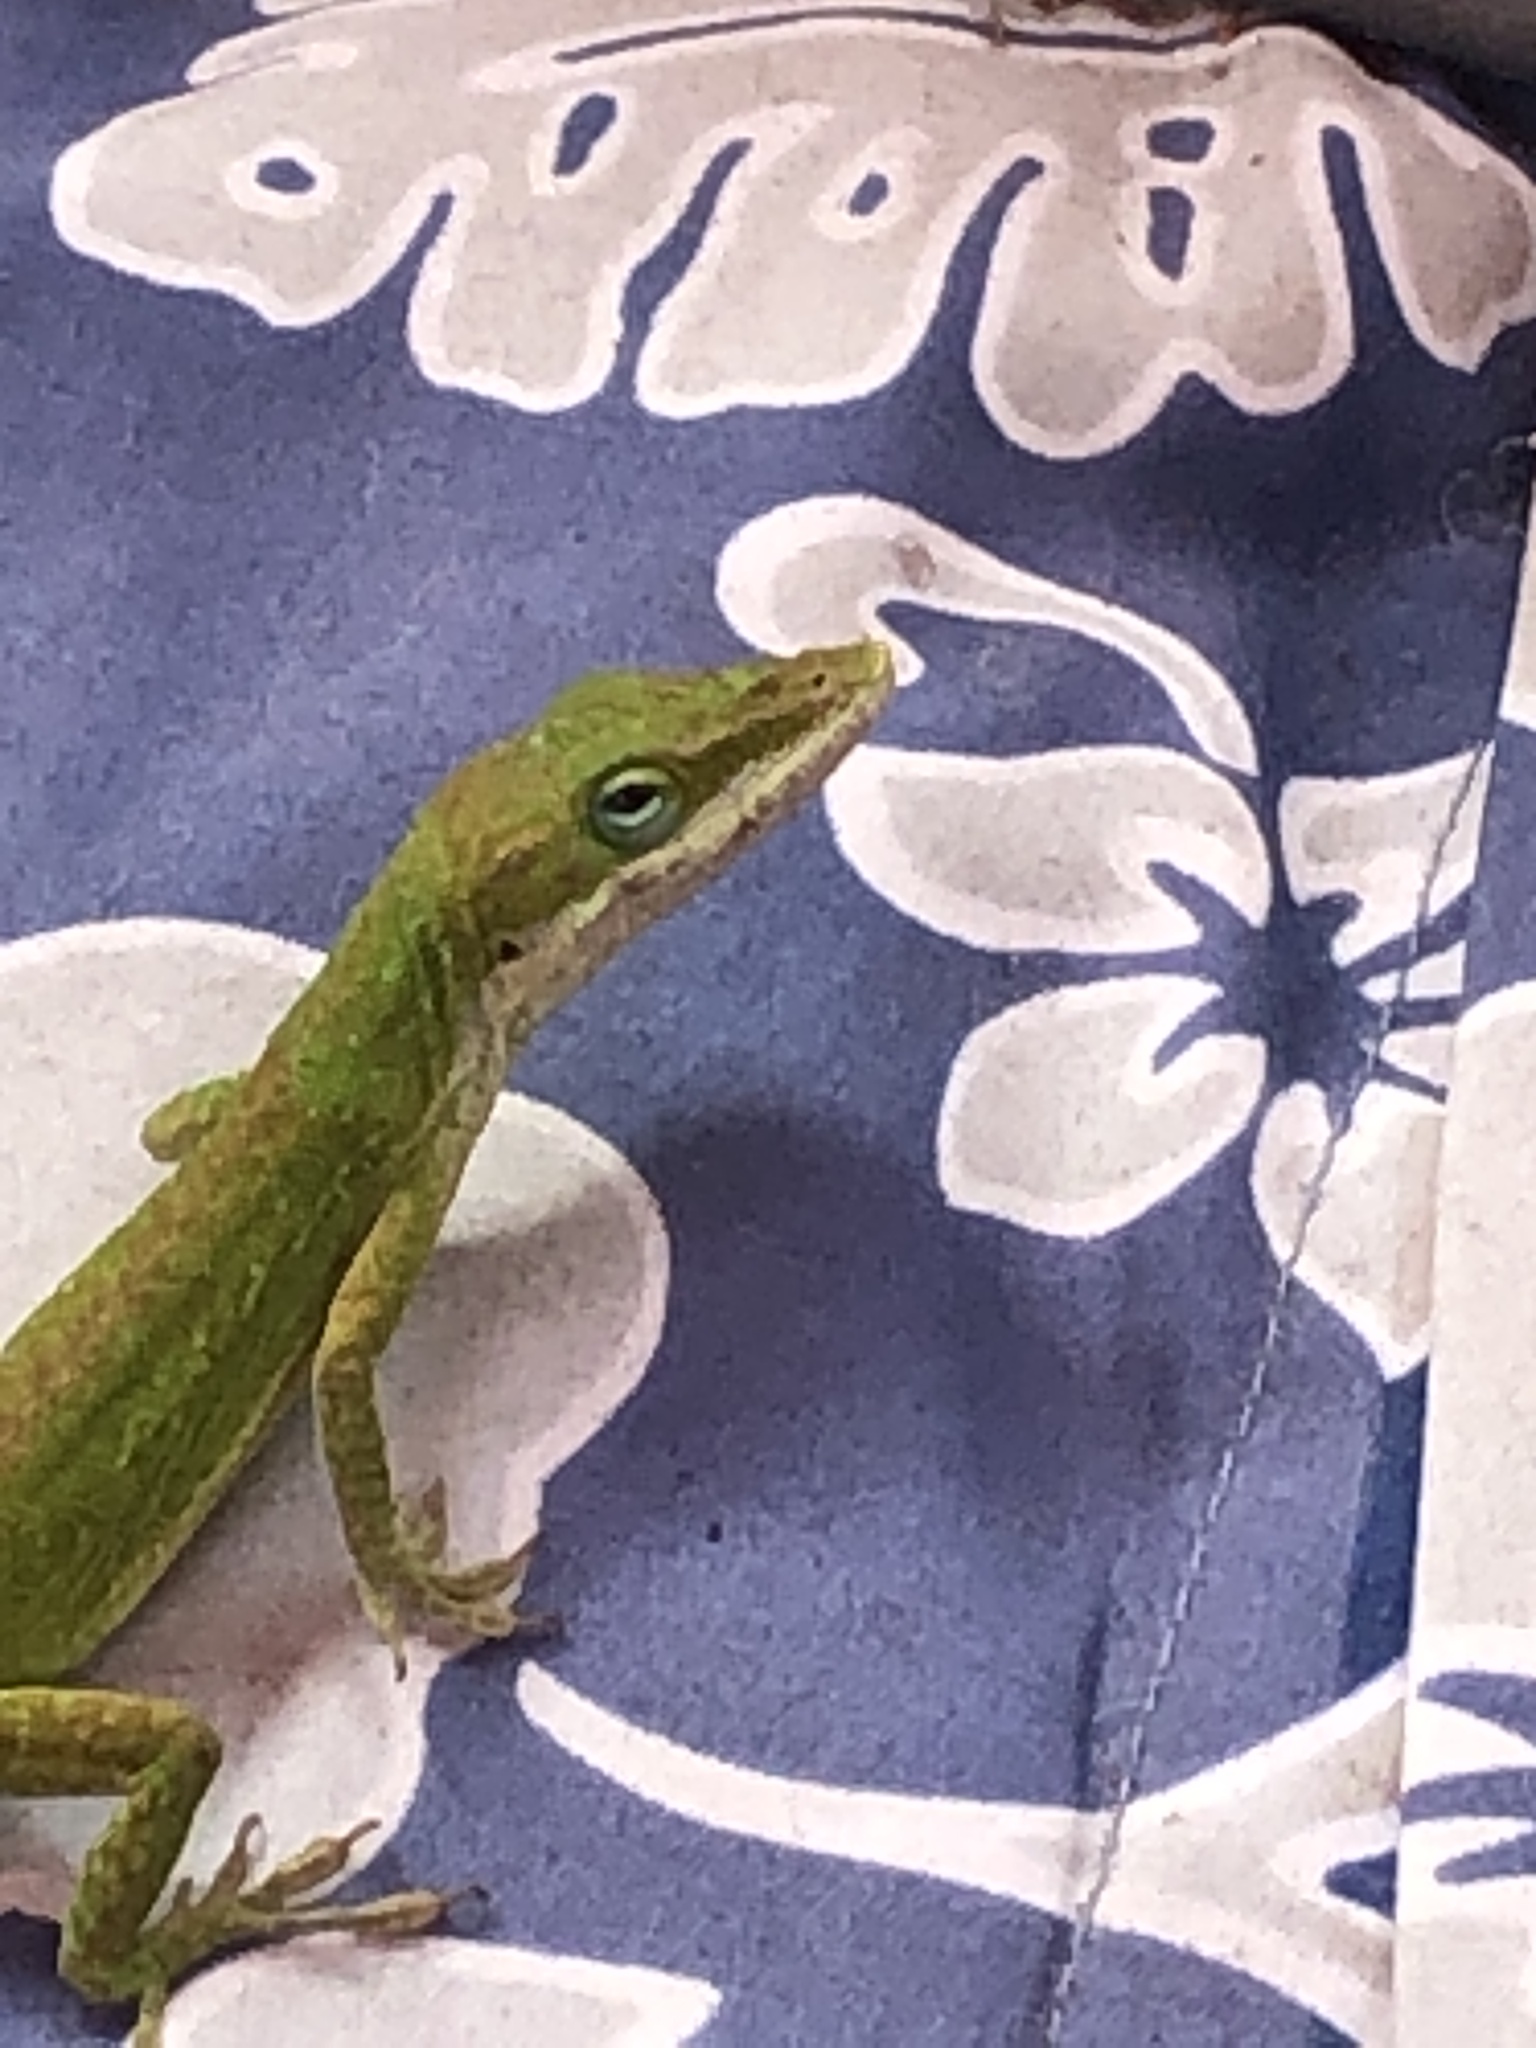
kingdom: Animalia
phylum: Chordata
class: Squamata
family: Dactyloidae
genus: Anolis
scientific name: Anolis carolinensis
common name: Green anole
